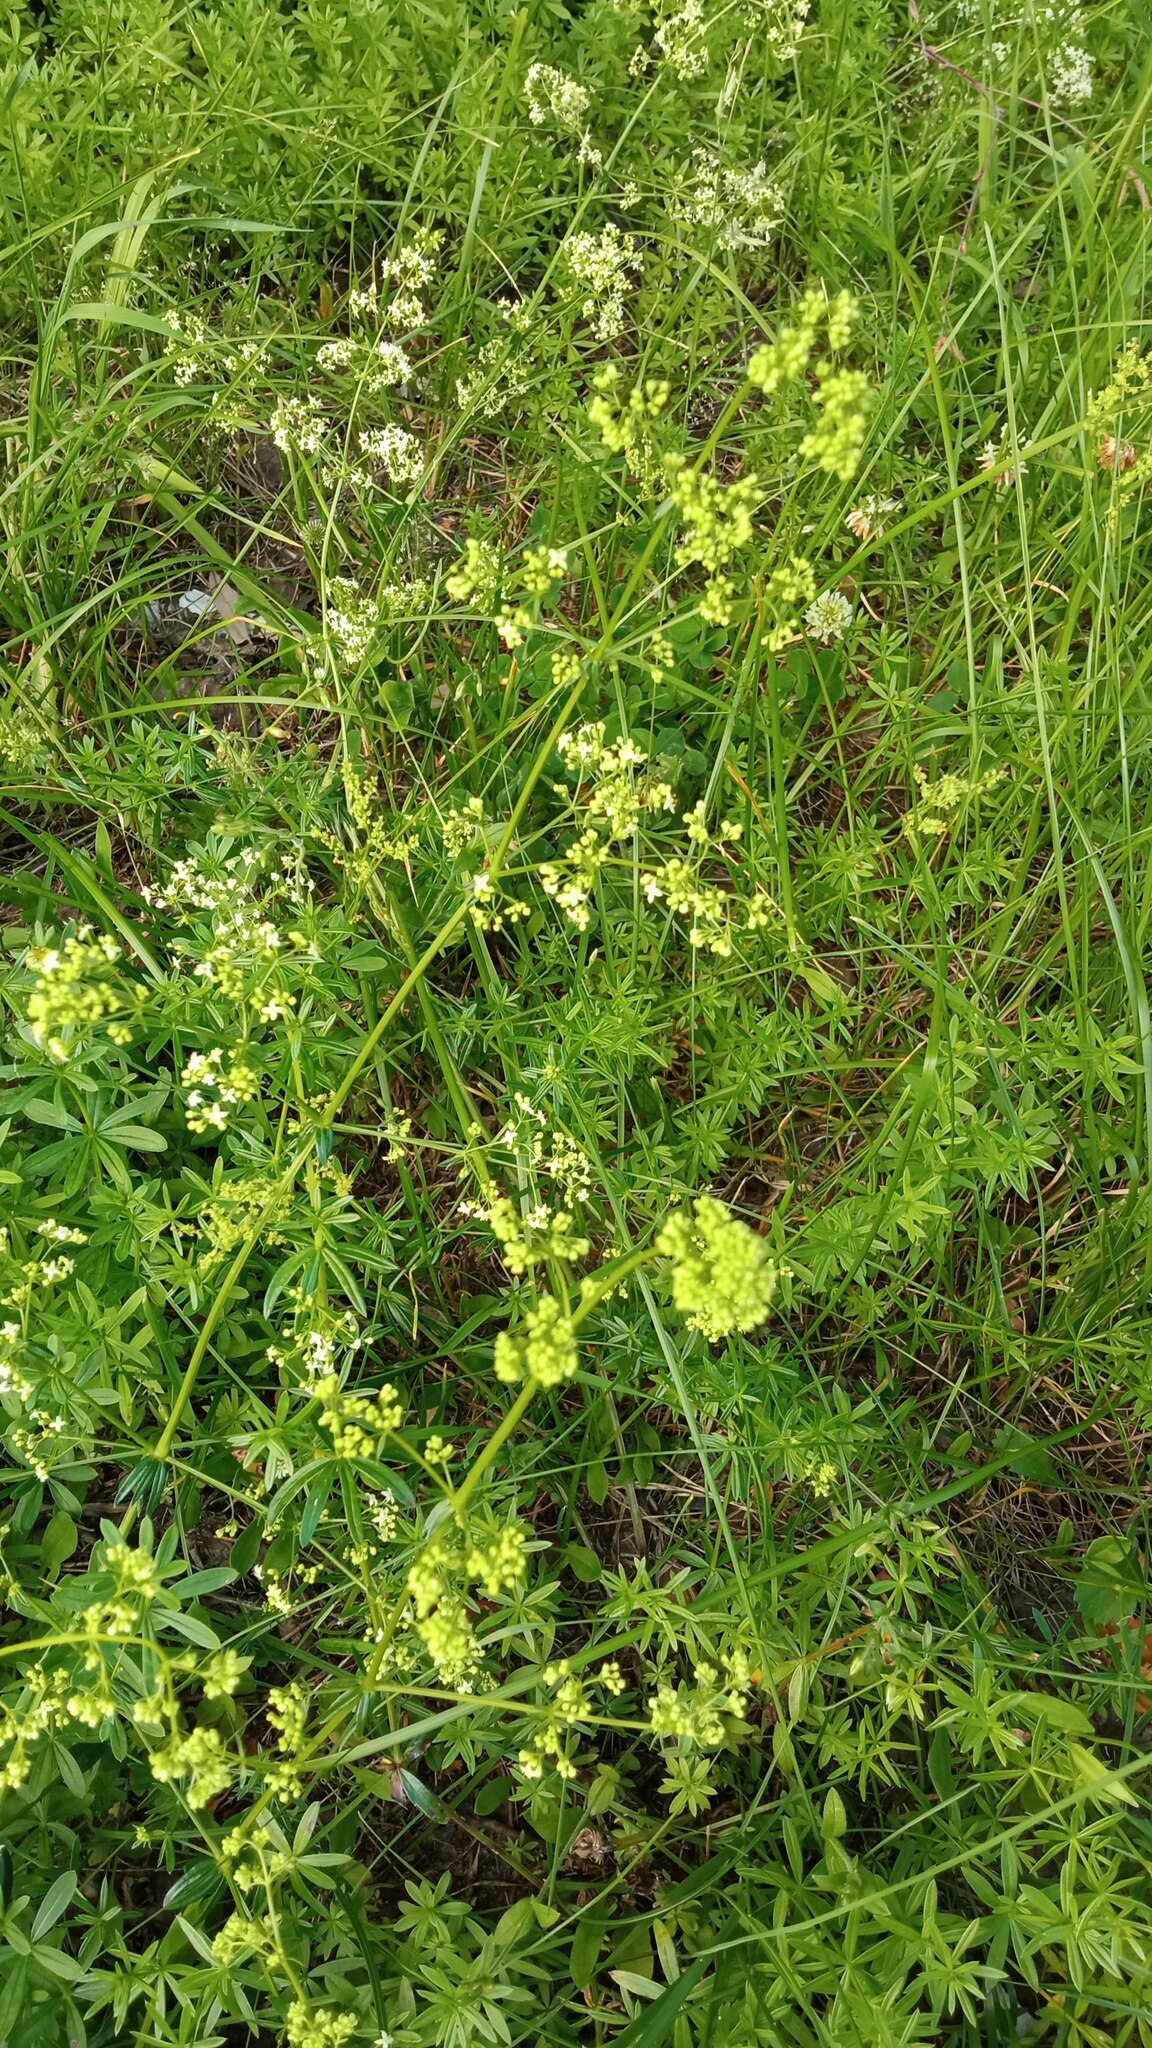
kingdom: Plantae
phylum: Tracheophyta
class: Magnoliopsida
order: Gentianales
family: Rubiaceae
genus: Galium
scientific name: Galium mollugo
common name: Hedge bedstraw
